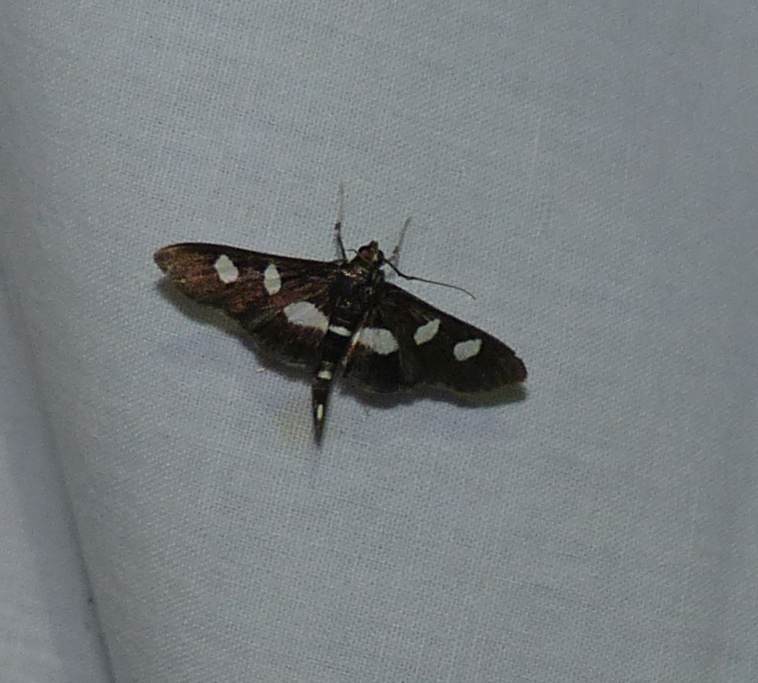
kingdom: Animalia
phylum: Arthropoda
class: Insecta
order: Lepidoptera
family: Crambidae
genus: Desmia
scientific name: Desmia
